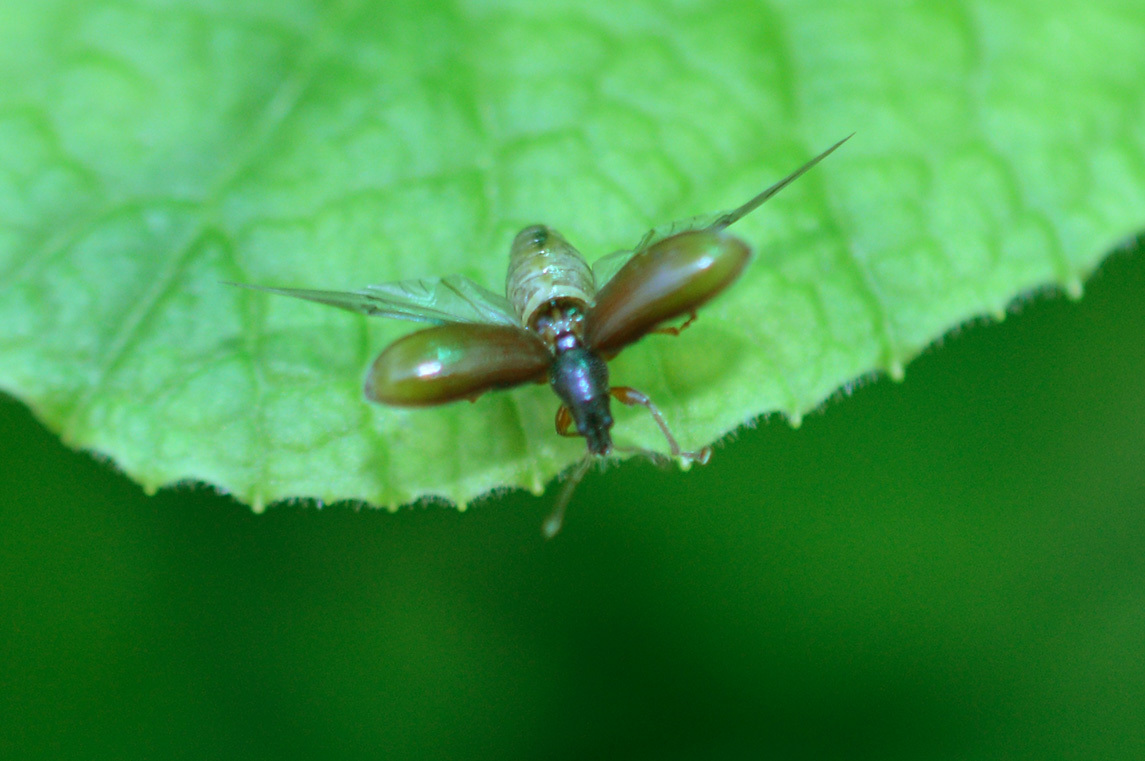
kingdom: Animalia
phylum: Arthropoda
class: Insecta
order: Coleoptera
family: Curculionidae
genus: Phyllobius
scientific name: Phyllobius oblongus
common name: Brown leaf weevil
